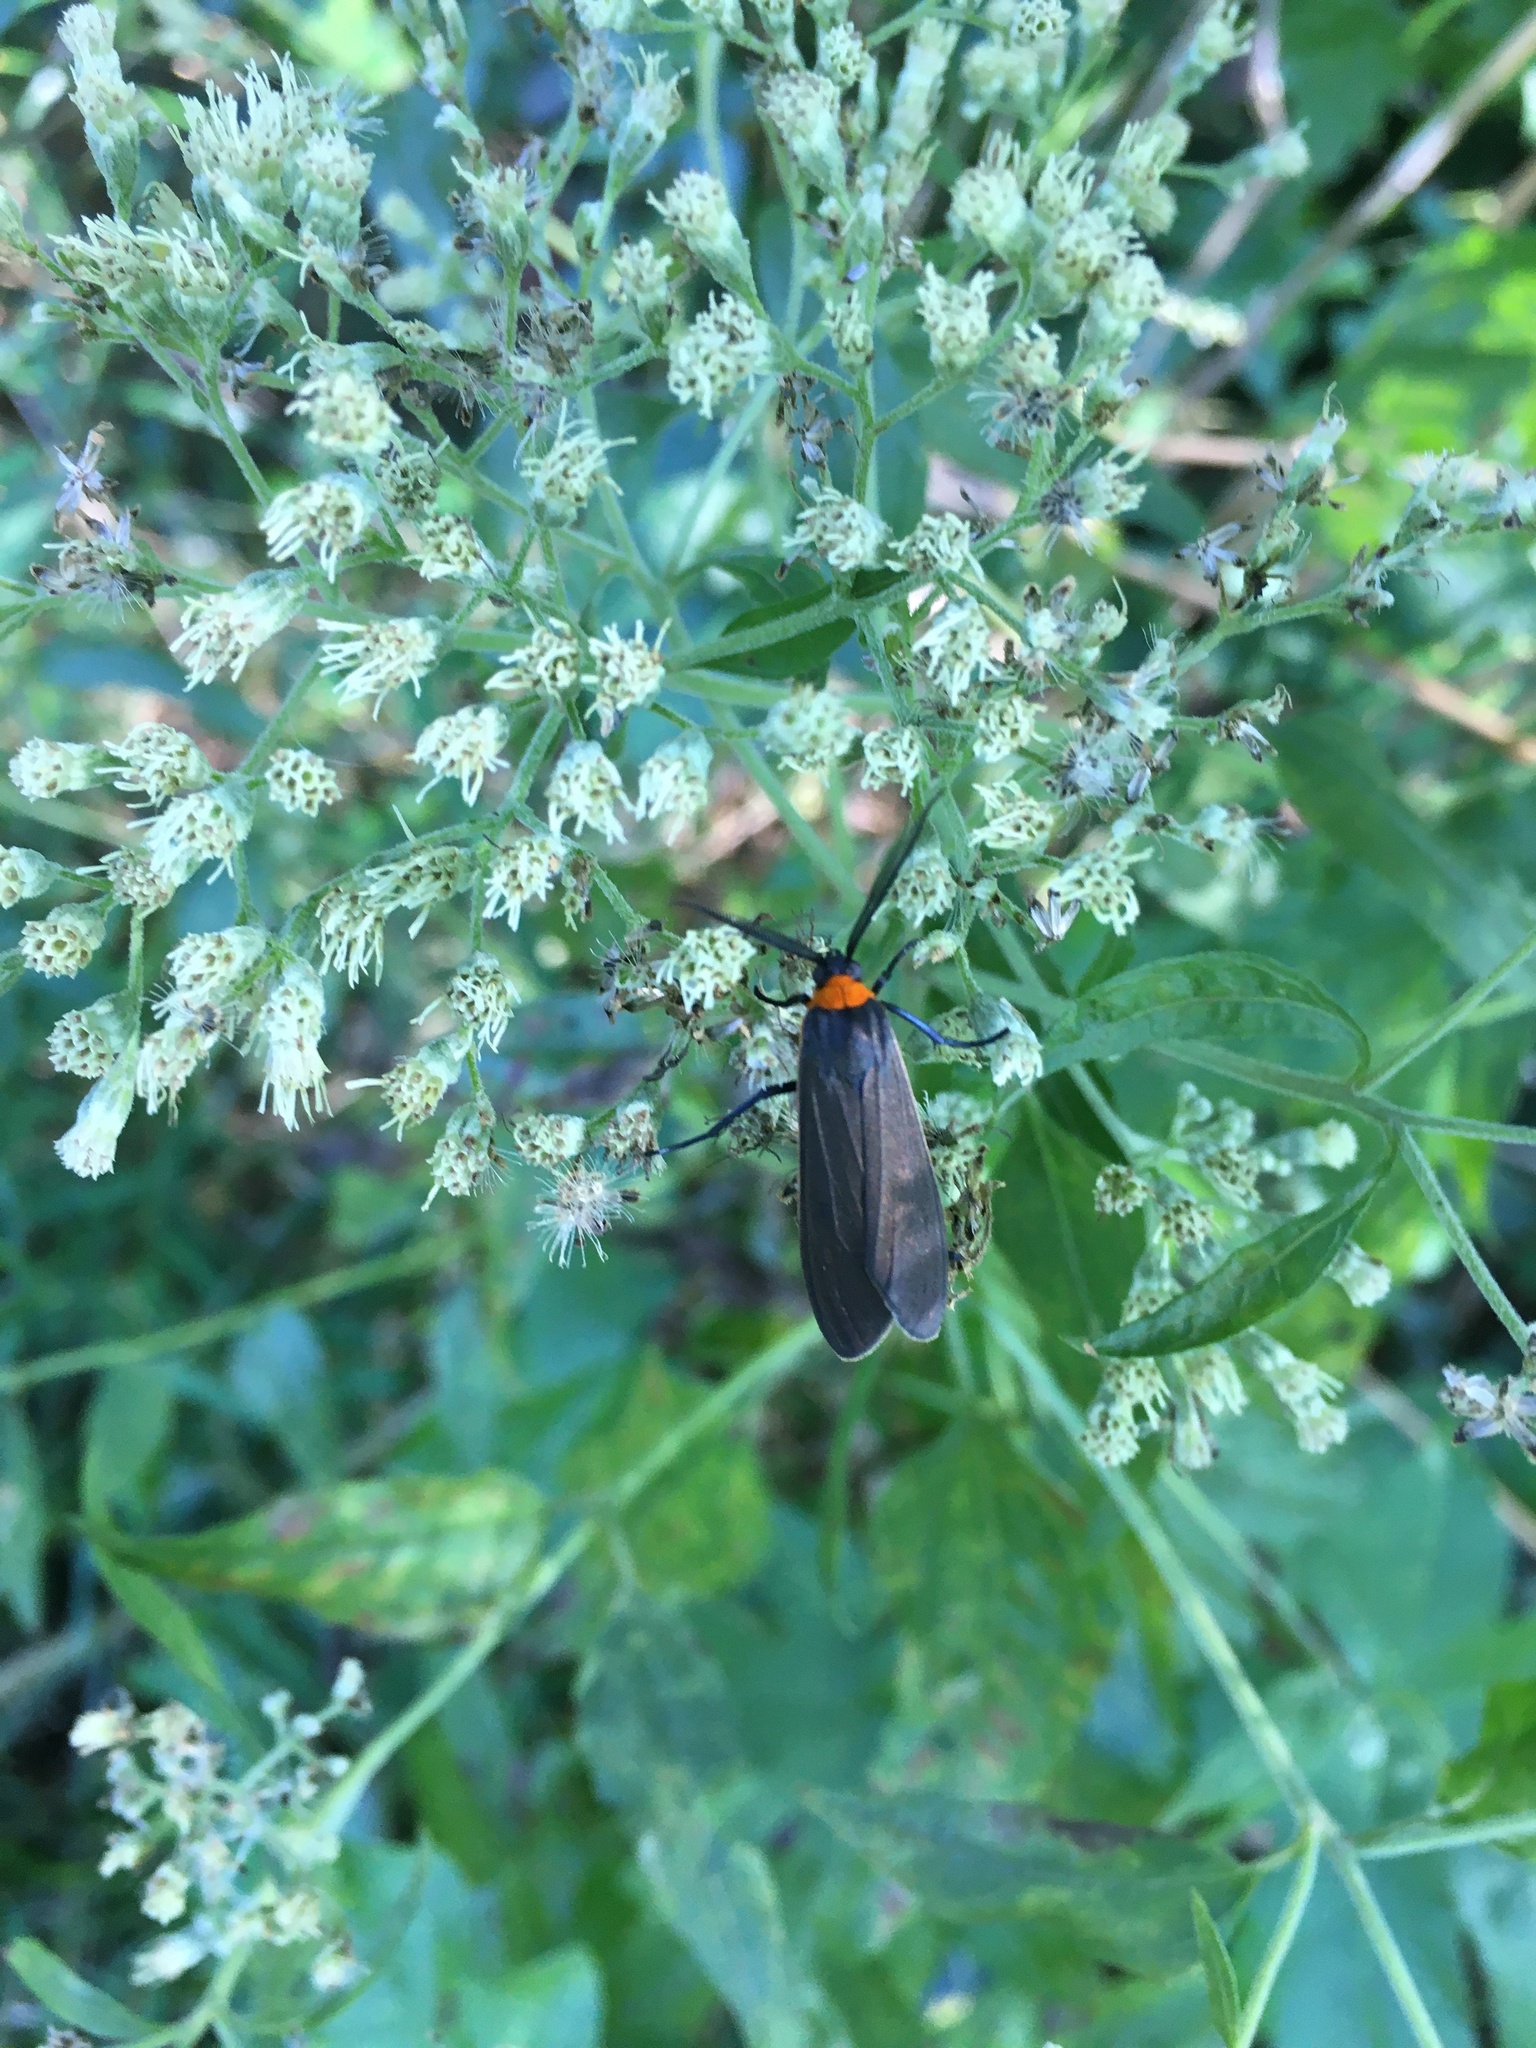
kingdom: Animalia
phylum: Arthropoda
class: Insecta
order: Lepidoptera
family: Erebidae
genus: Cisseps
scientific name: Cisseps fulvicollis
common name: Yellow-collared scape moth
